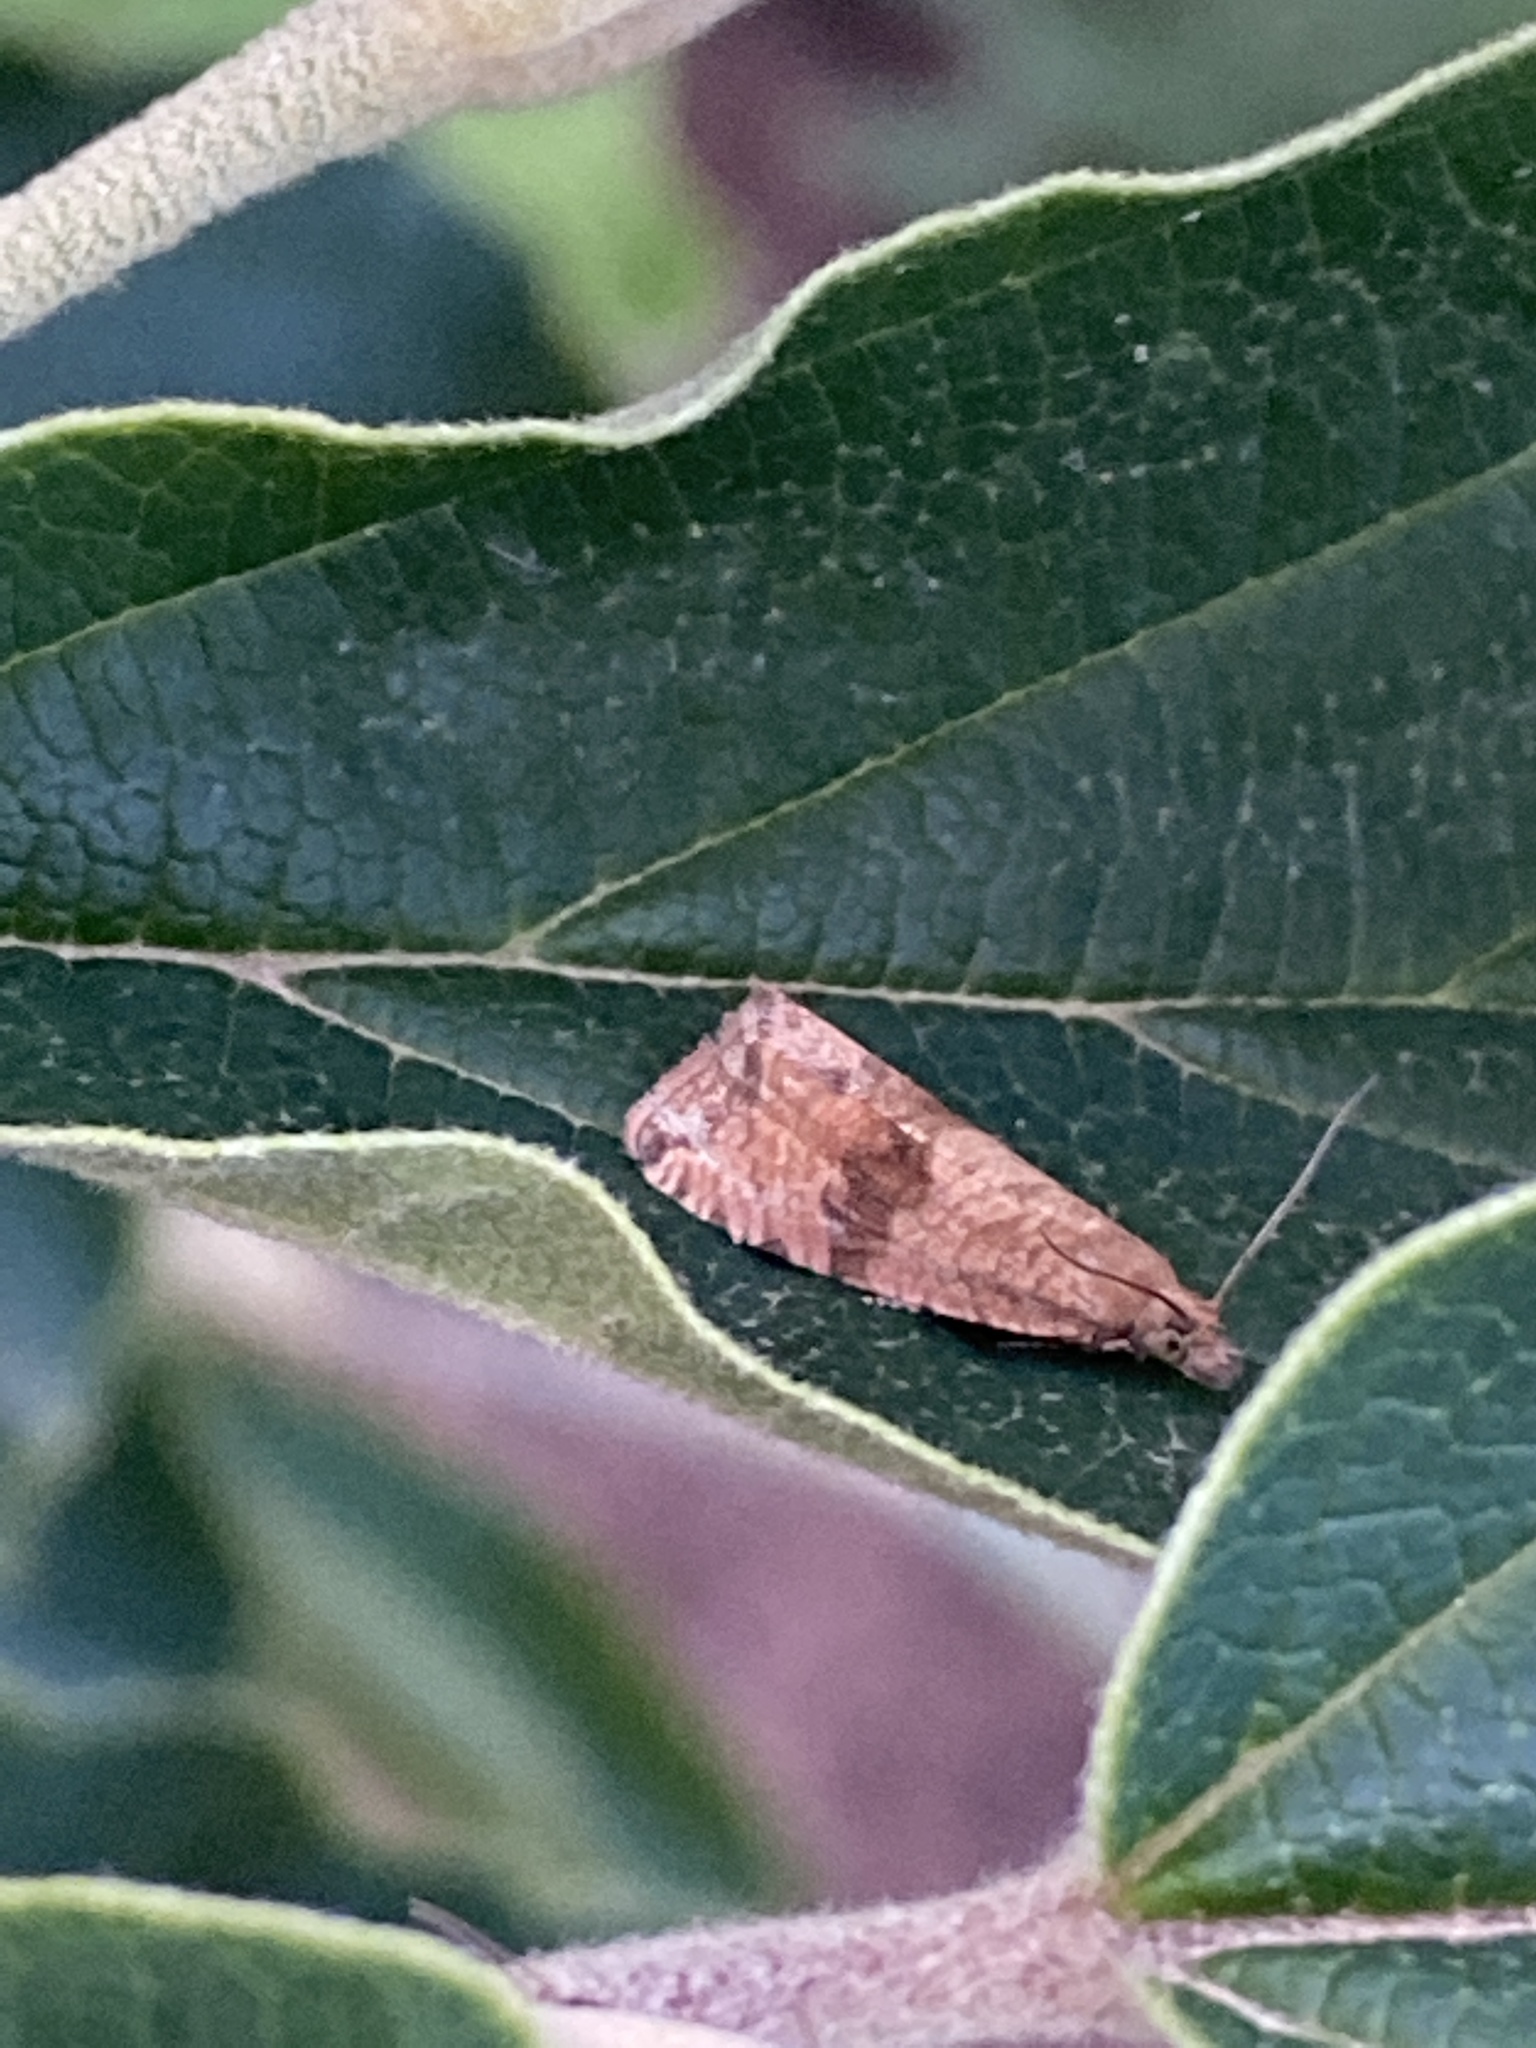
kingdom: Animalia
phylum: Arthropoda
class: Insecta
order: Lepidoptera
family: Tortricidae
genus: Celypha
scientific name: Celypha striana
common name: Barred marble
